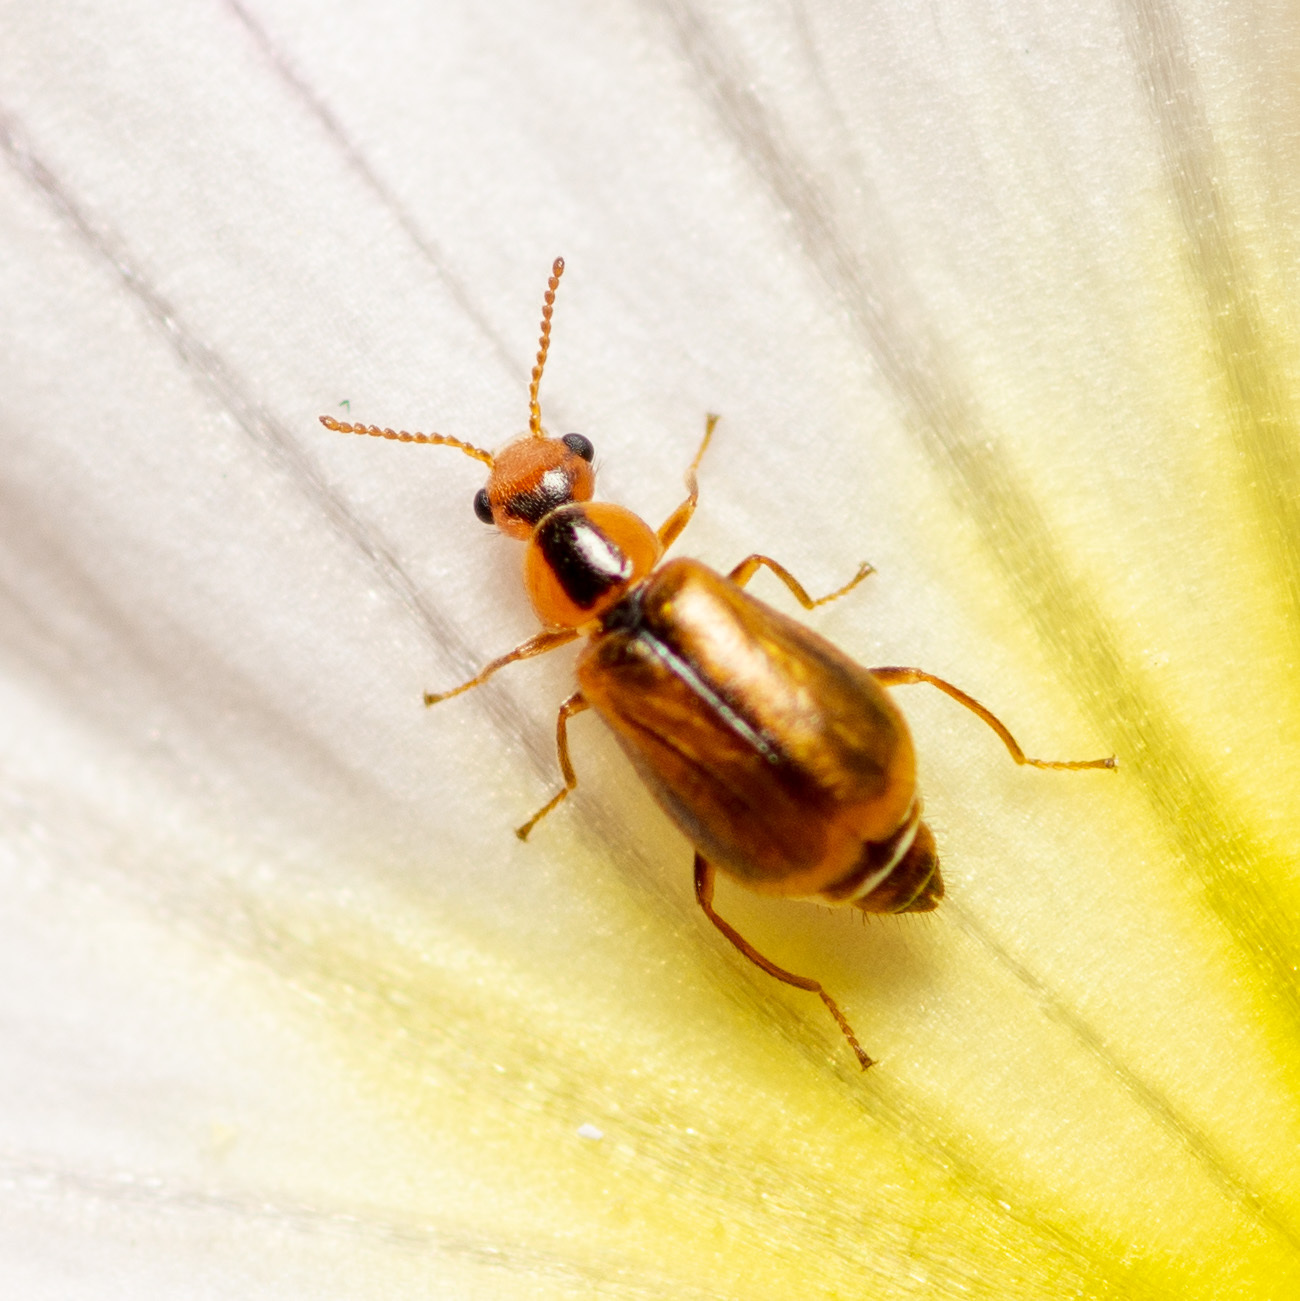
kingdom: Animalia
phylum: Arthropoda
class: Insecta
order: Coleoptera
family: Malachiidae
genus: Attalus
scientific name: Attalus
